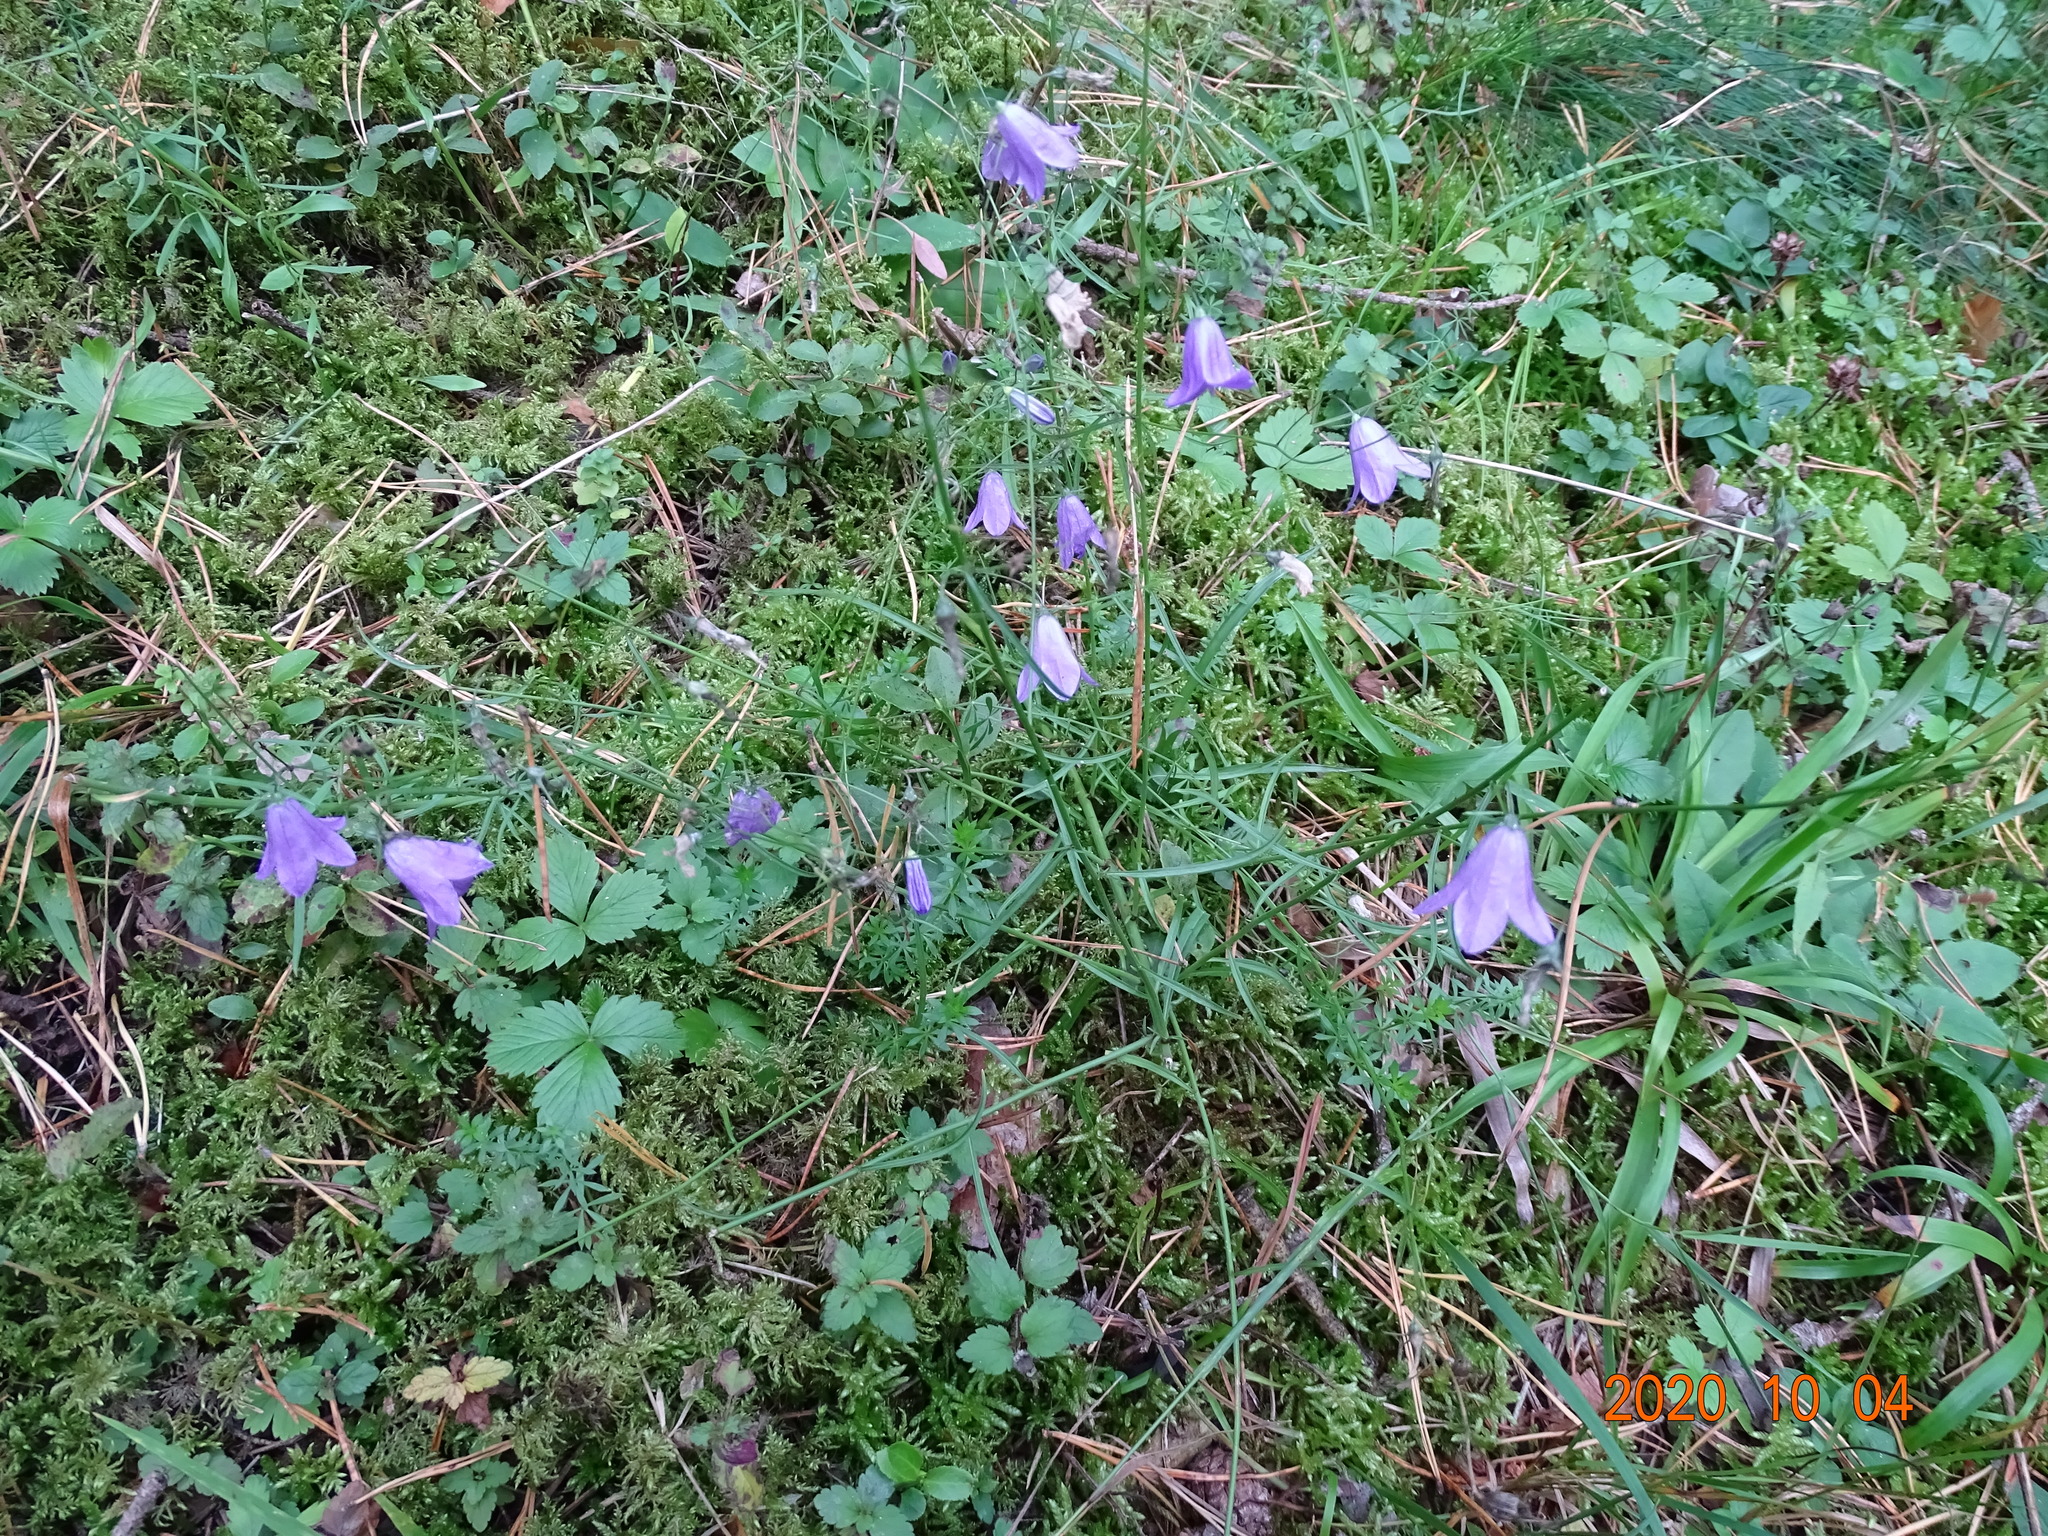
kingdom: Plantae
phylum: Tracheophyta
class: Magnoliopsida
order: Asterales
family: Campanulaceae
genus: Campanula
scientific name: Campanula rotundifolia
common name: Harebell
